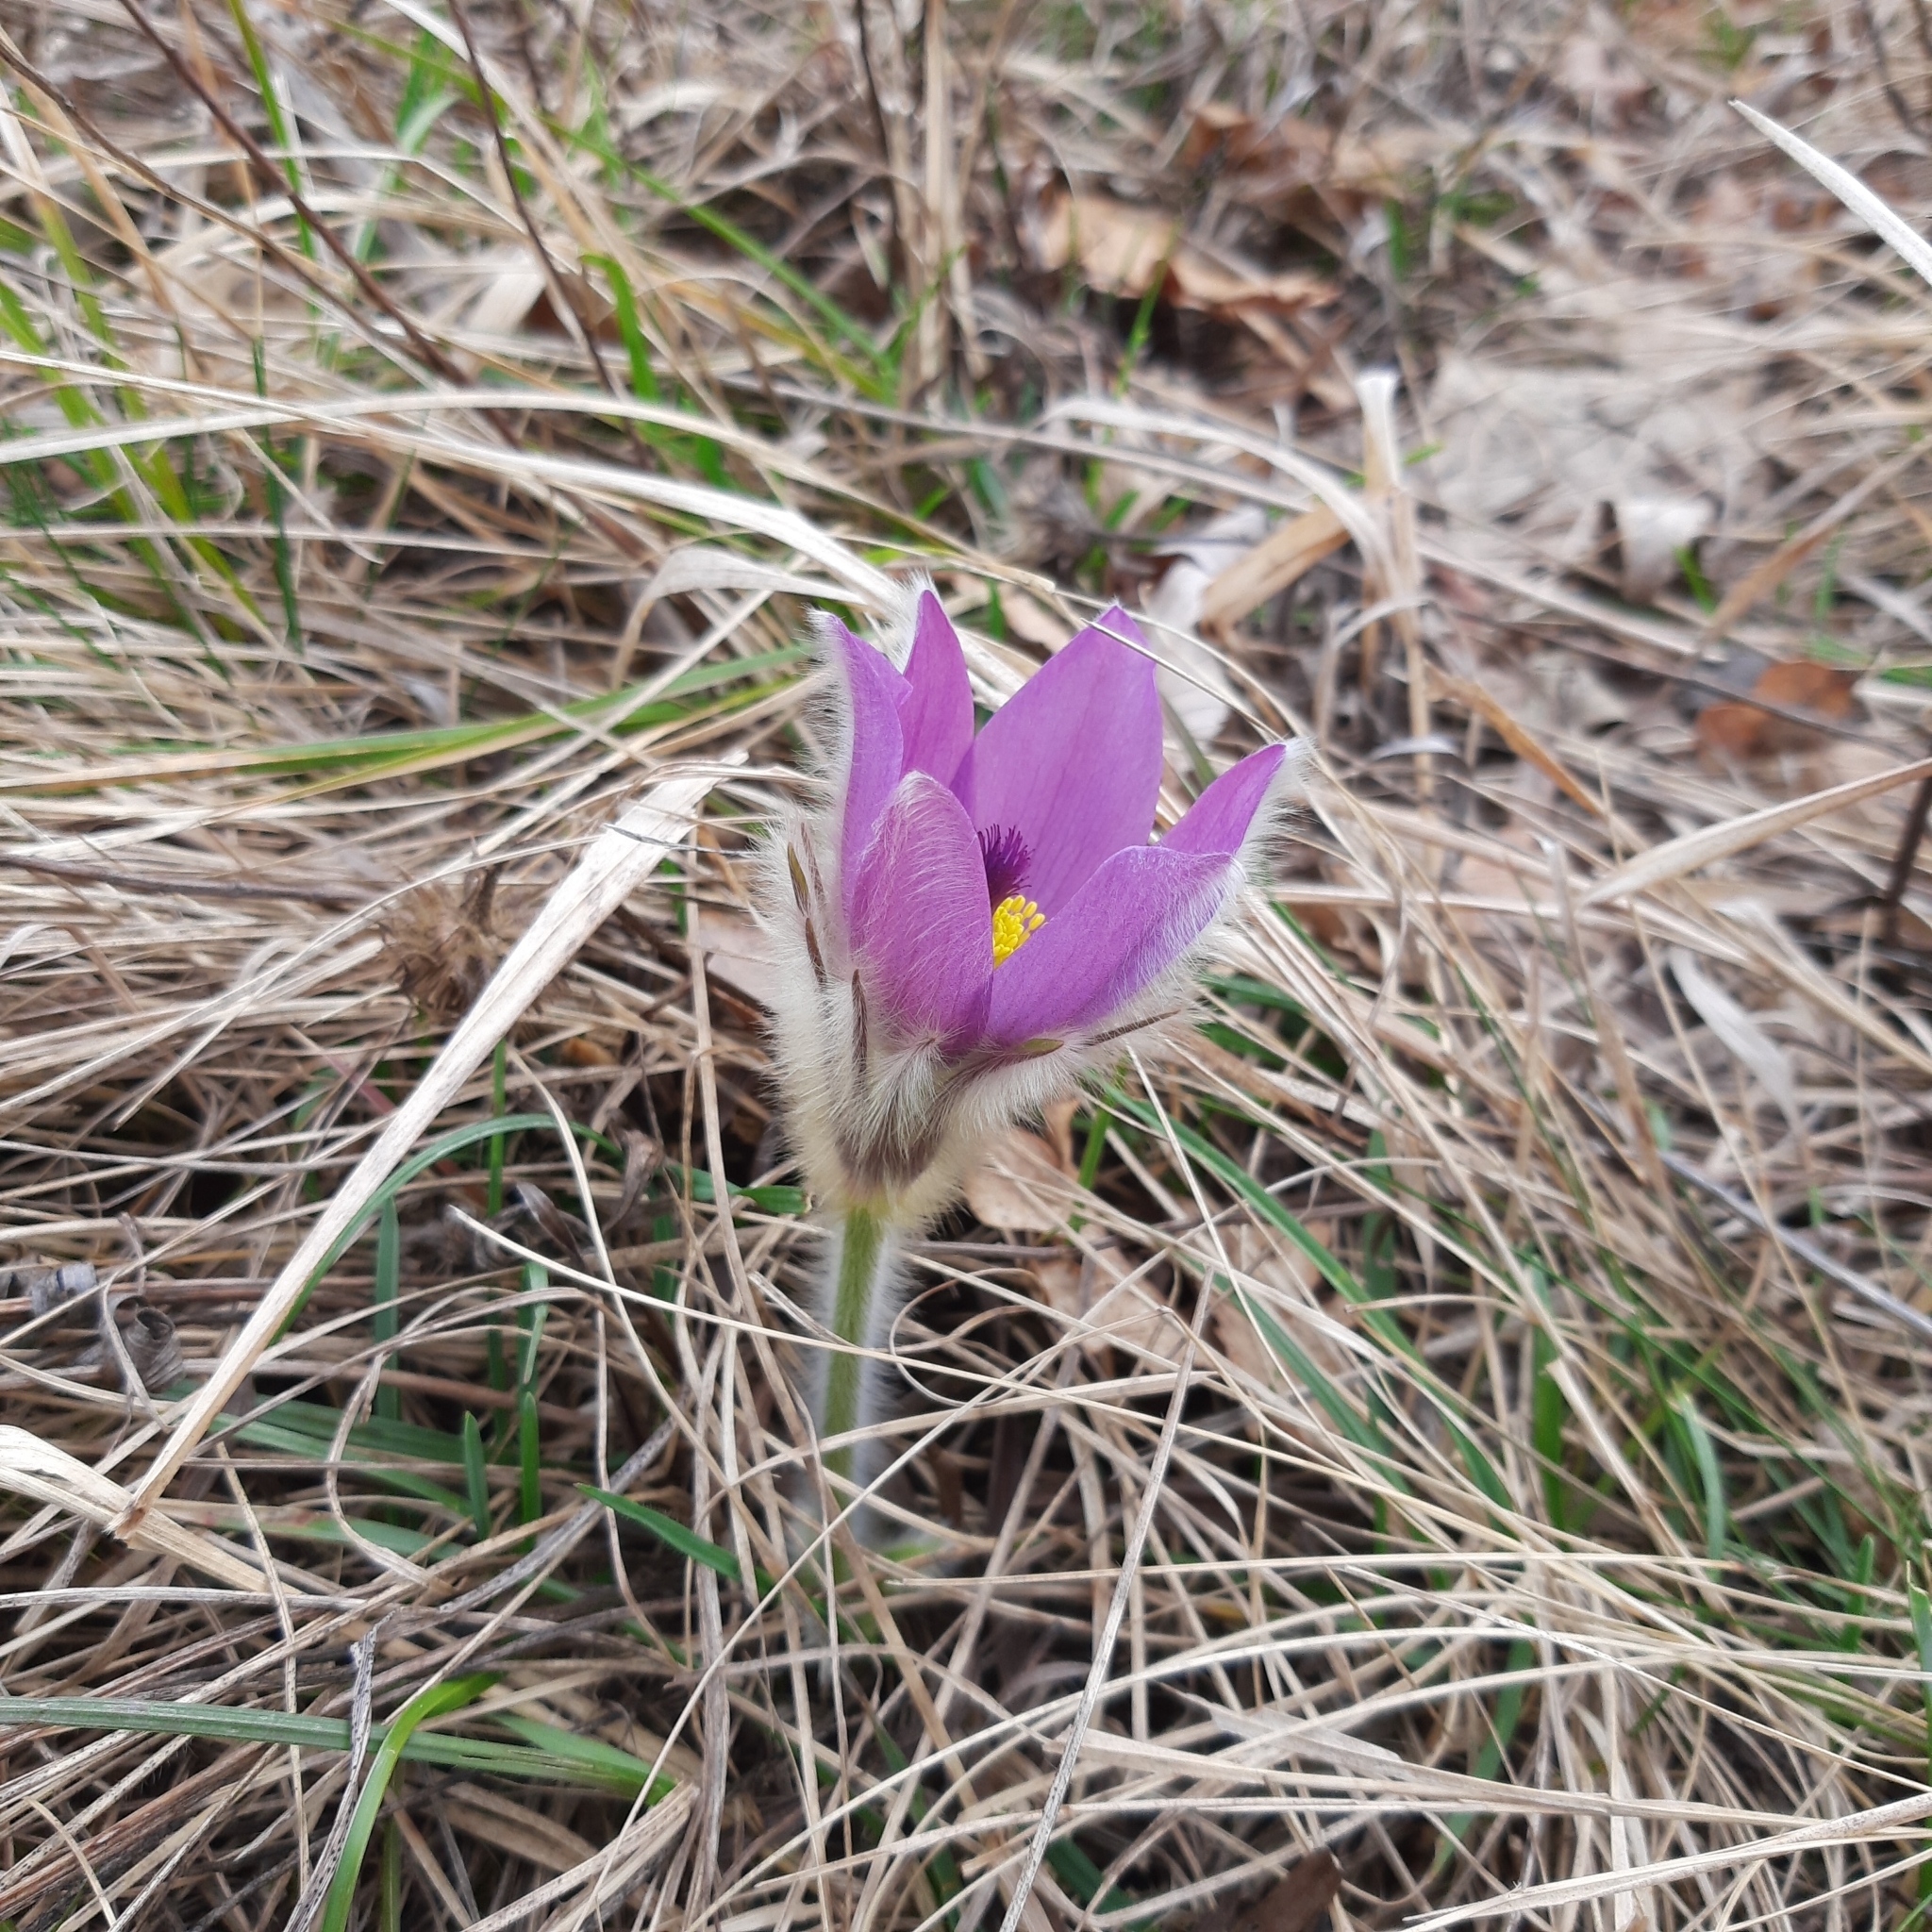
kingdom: Plantae
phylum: Tracheophyta
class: Magnoliopsida
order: Ranunculales
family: Ranunculaceae
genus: Pulsatilla
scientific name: Pulsatilla grandis
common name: Greater pasque flower
